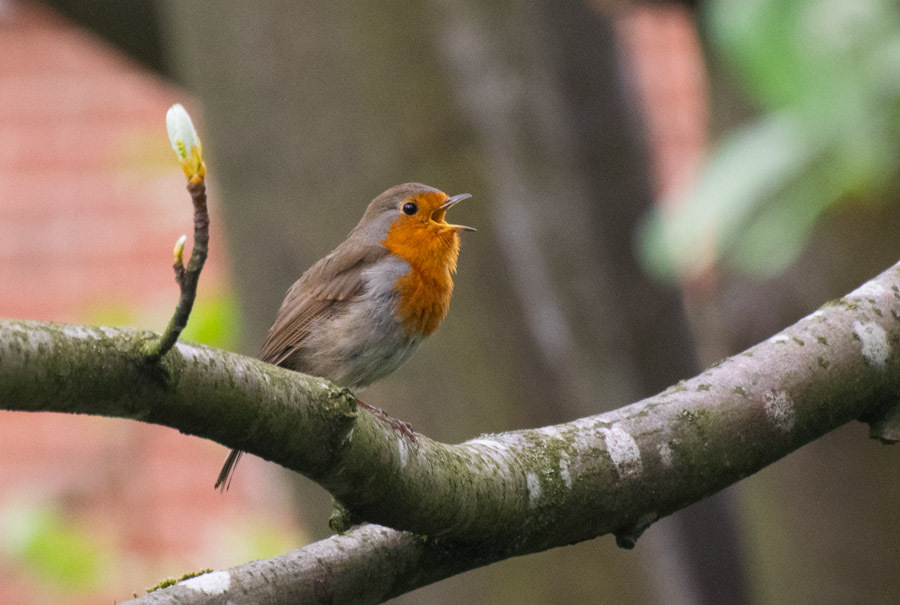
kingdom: Animalia
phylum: Chordata
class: Aves
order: Passeriformes
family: Muscicapidae
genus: Erithacus
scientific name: Erithacus rubecula
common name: European robin
